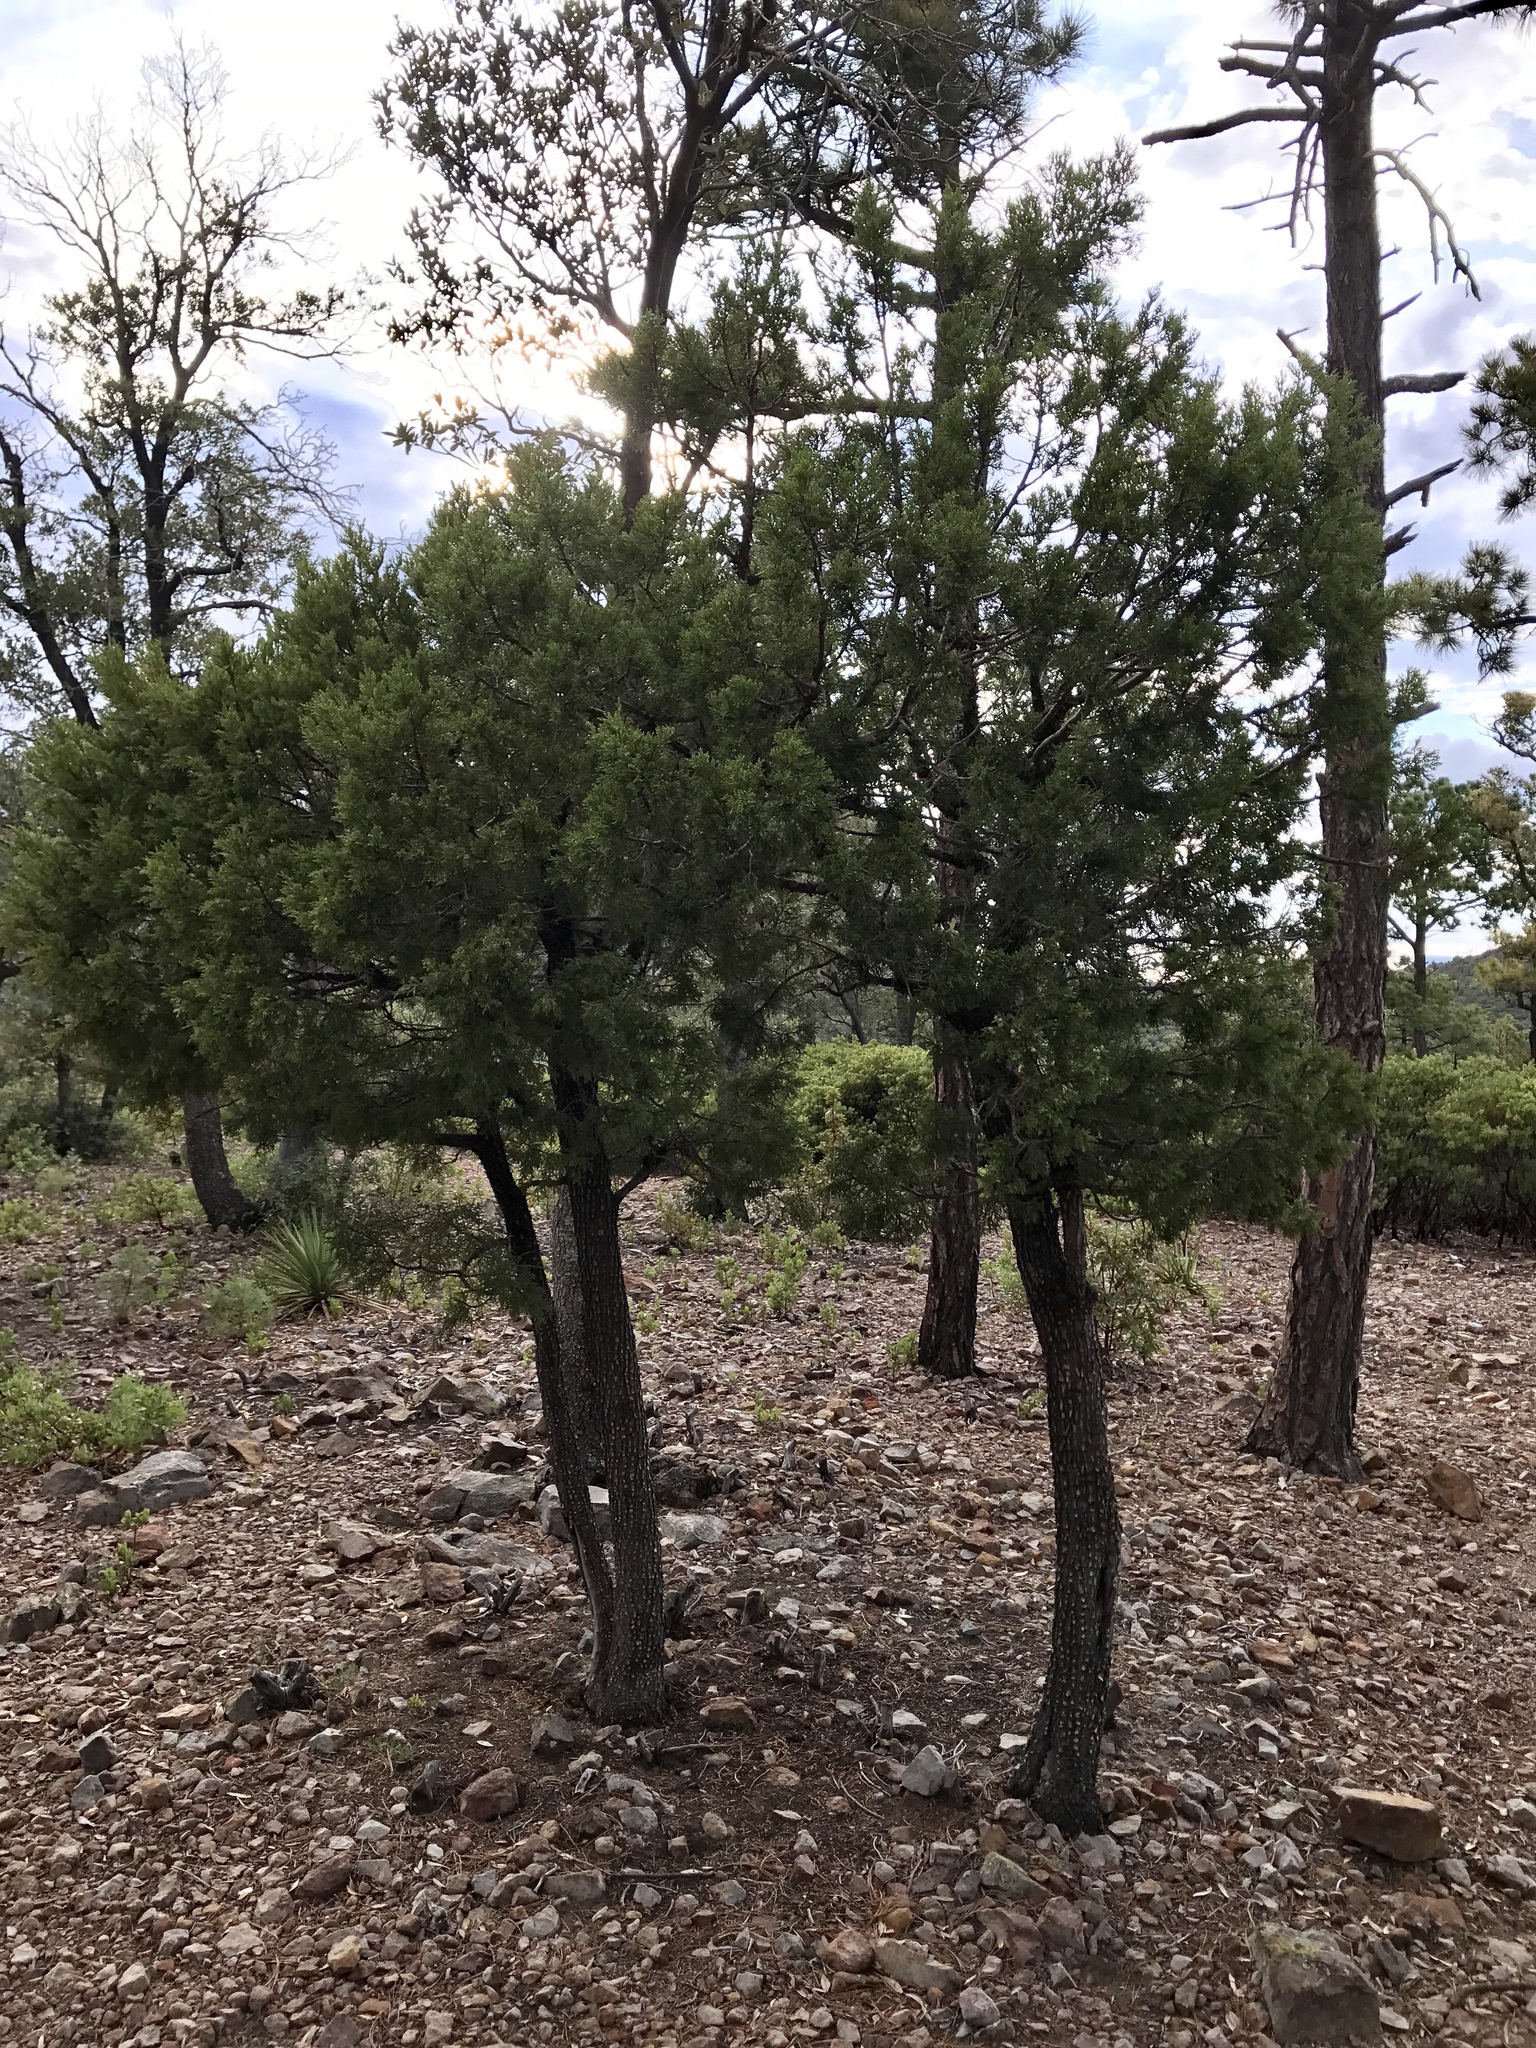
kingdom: Plantae
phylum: Tracheophyta
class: Pinopsida
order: Pinales
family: Cupressaceae
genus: Juniperus
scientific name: Juniperus deppeana
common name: Alligator juniper
